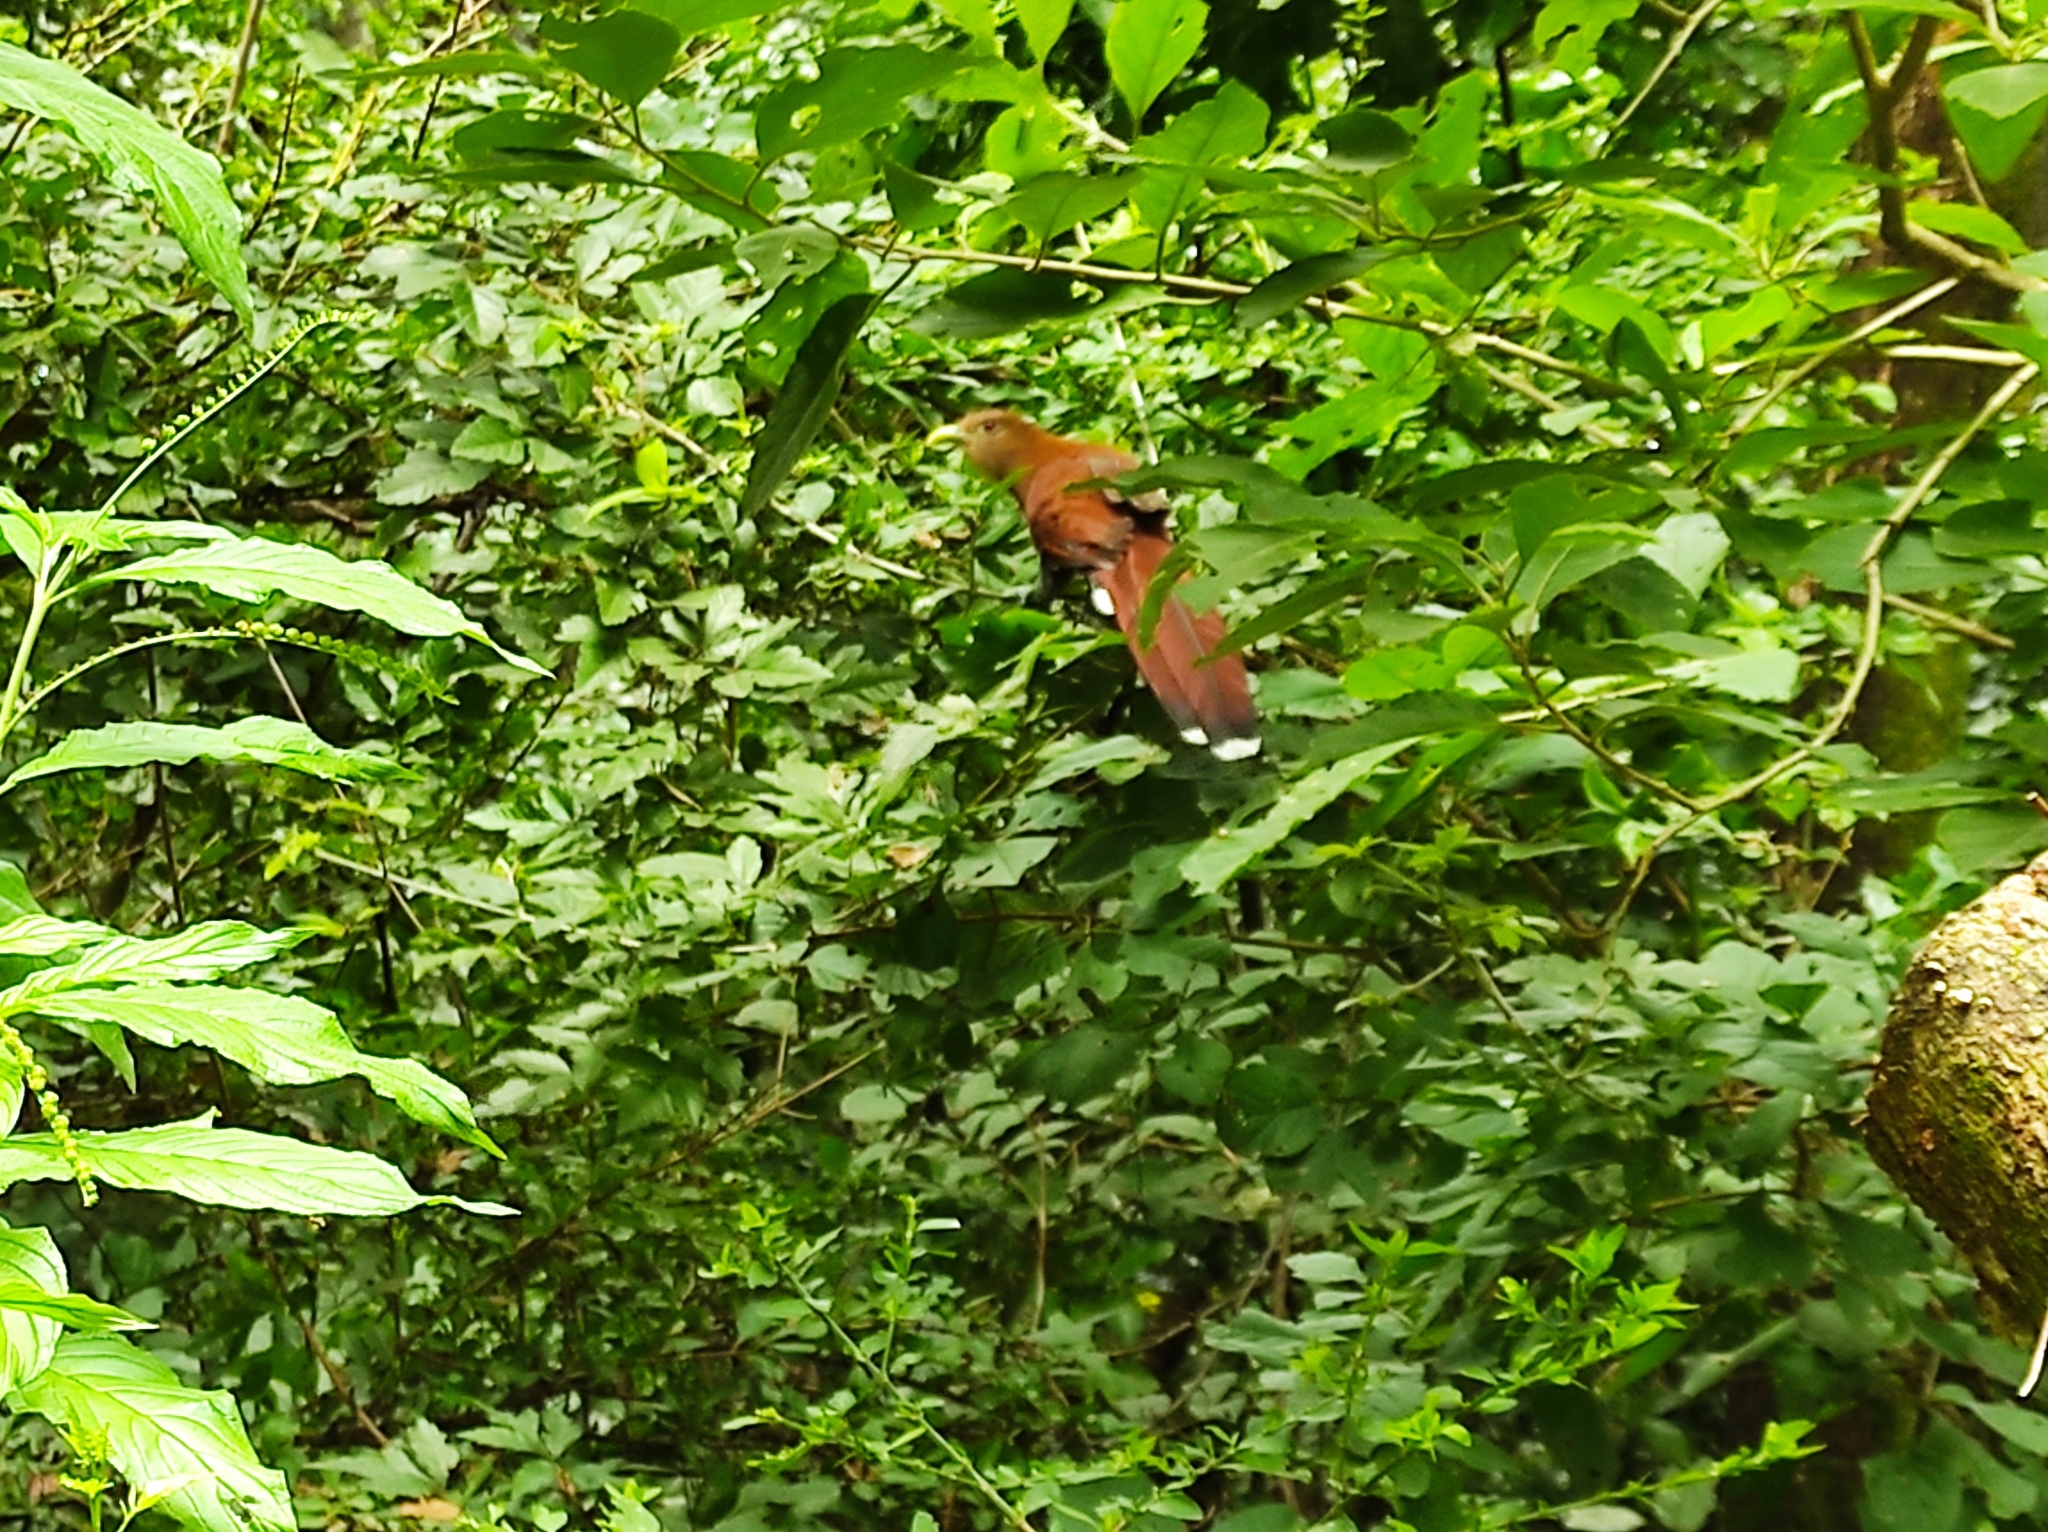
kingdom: Animalia
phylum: Chordata
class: Aves
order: Cuculiformes
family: Cuculidae
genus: Piaya
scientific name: Piaya cayana
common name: Squirrel cuckoo
